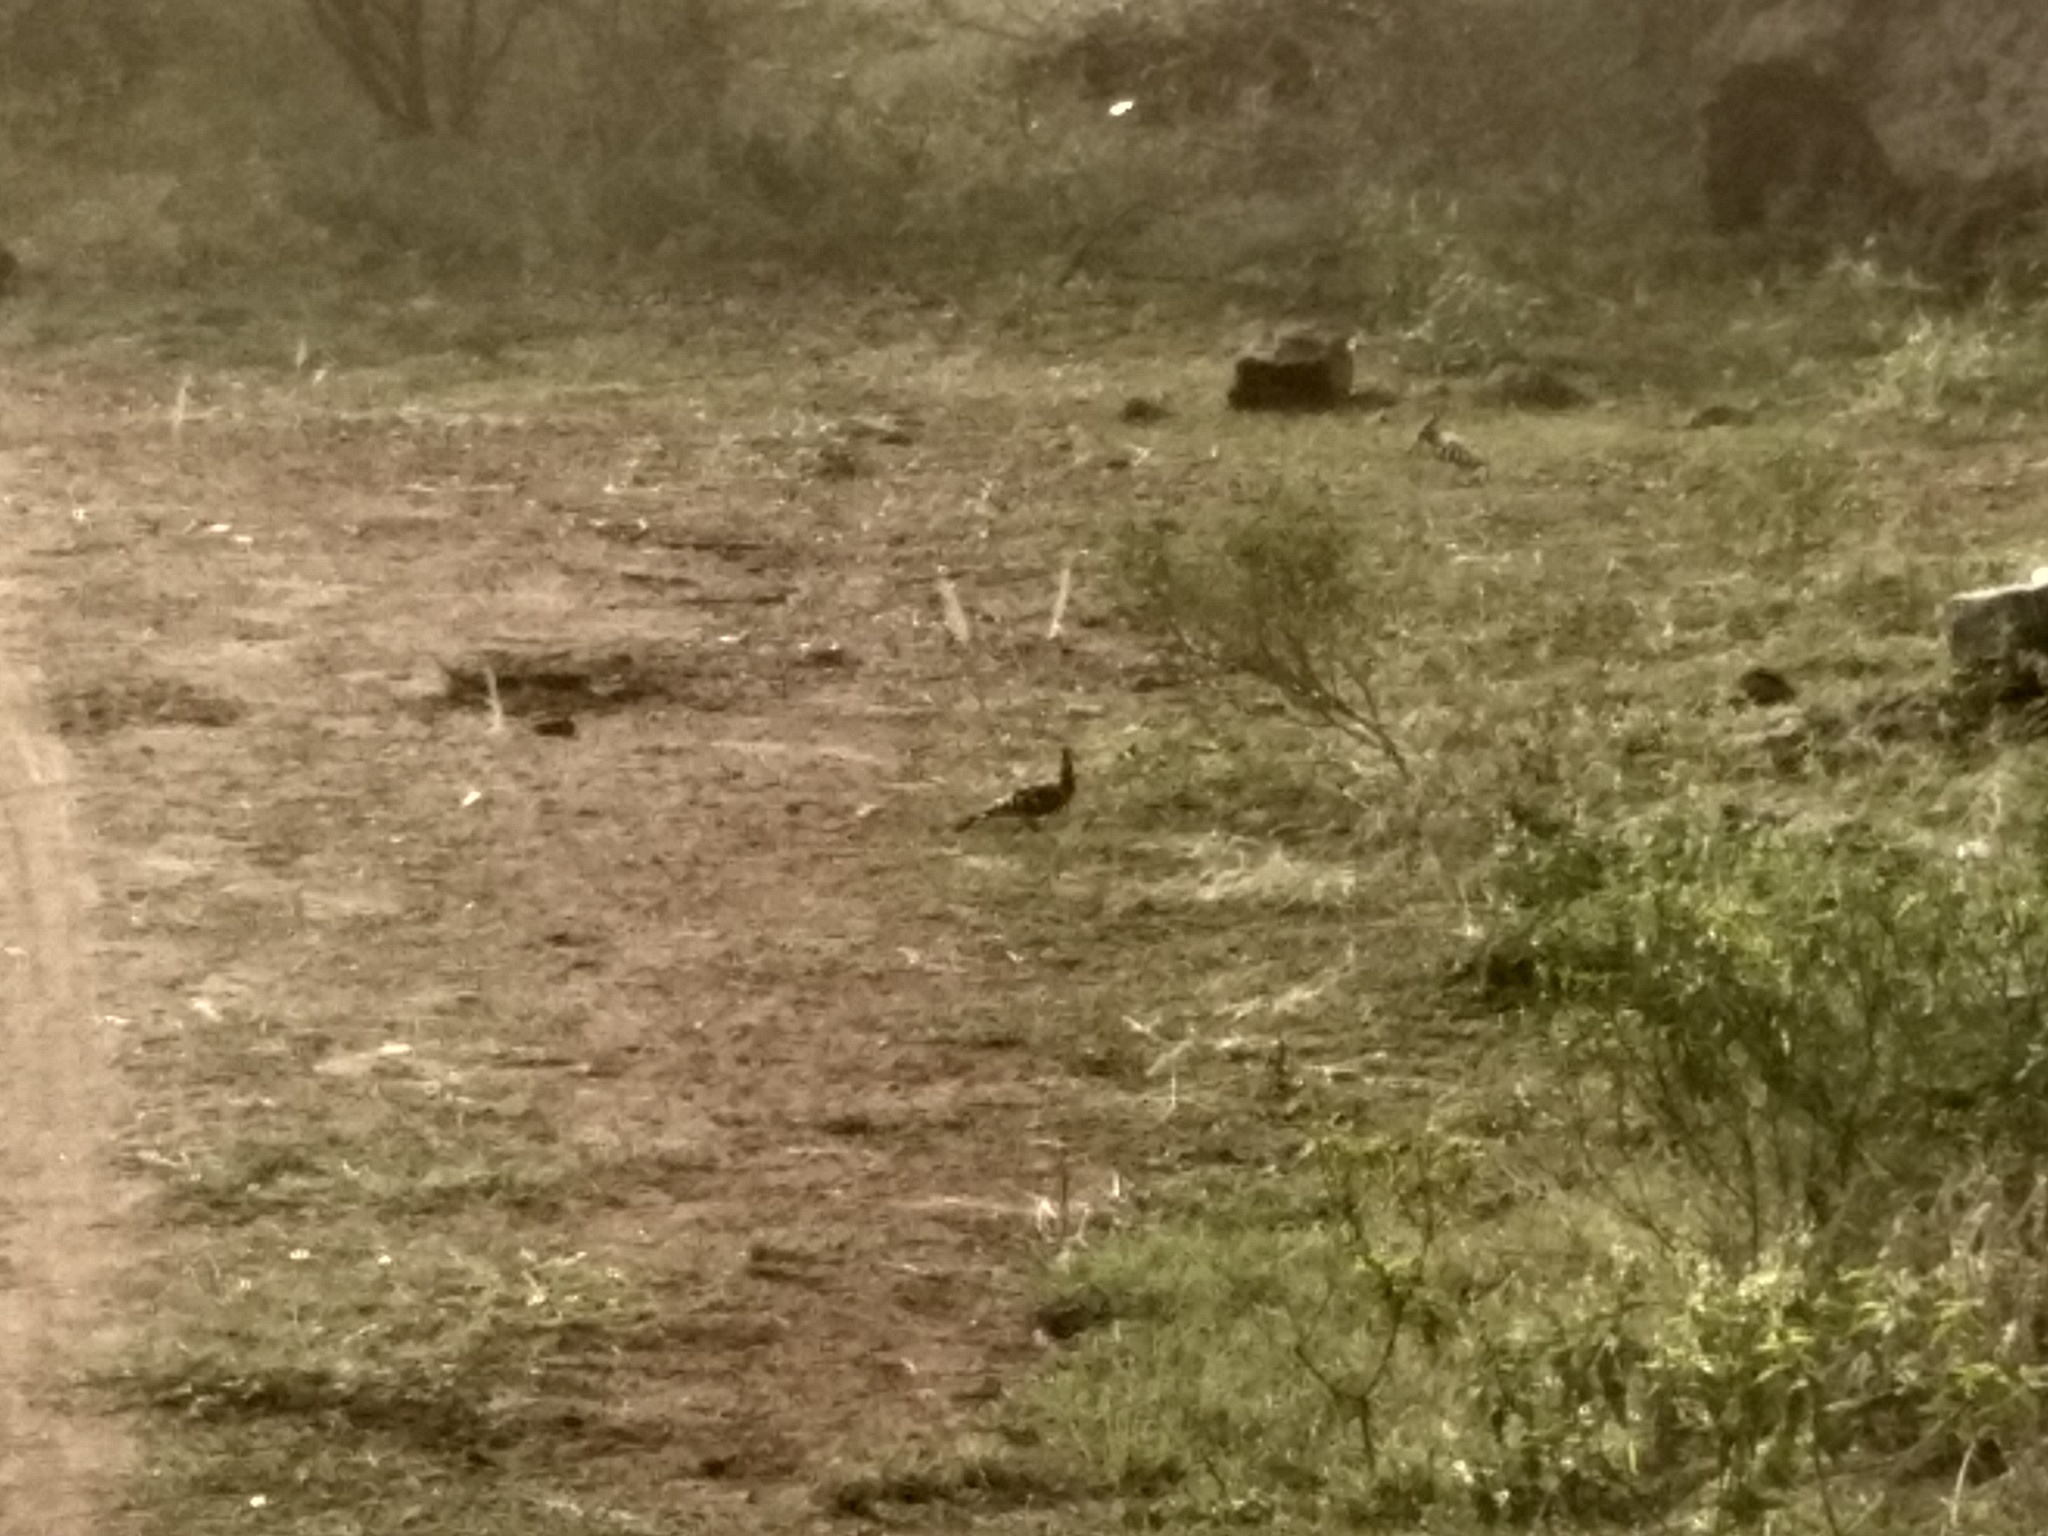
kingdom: Animalia
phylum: Chordata
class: Aves
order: Bucerotiformes
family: Upupidae
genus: Upupa
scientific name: Upupa epops
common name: Eurasian hoopoe
